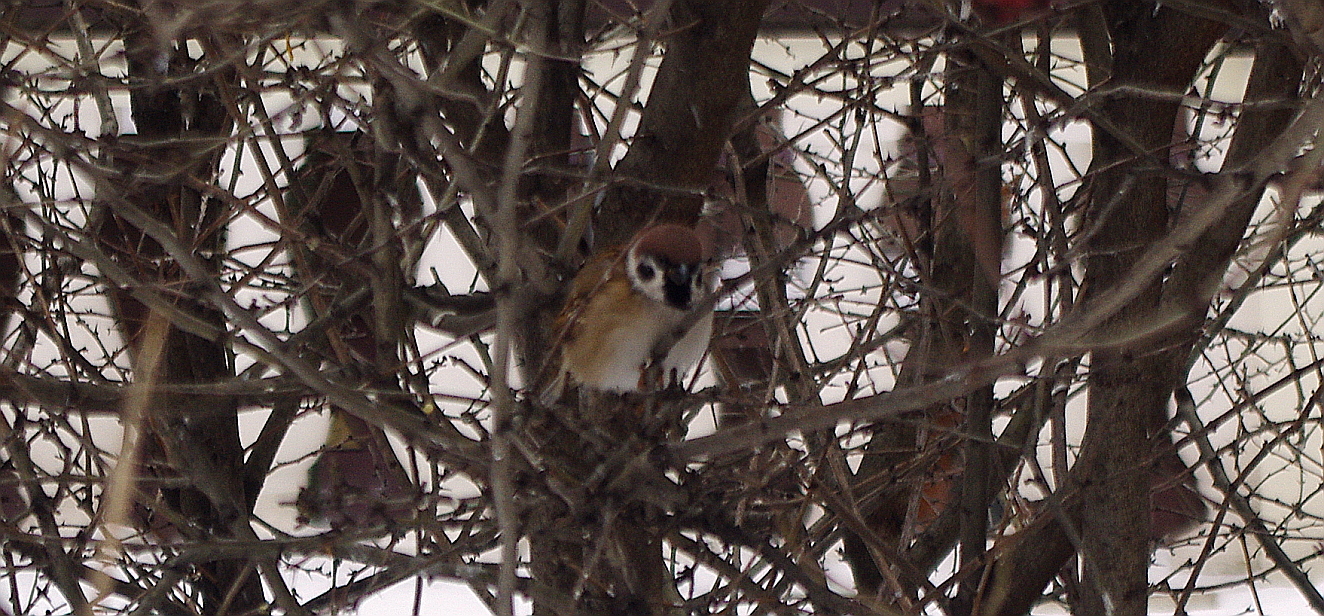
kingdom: Animalia
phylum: Chordata
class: Aves
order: Passeriformes
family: Passeridae
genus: Passer
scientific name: Passer montanus
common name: Eurasian tree sparrow
